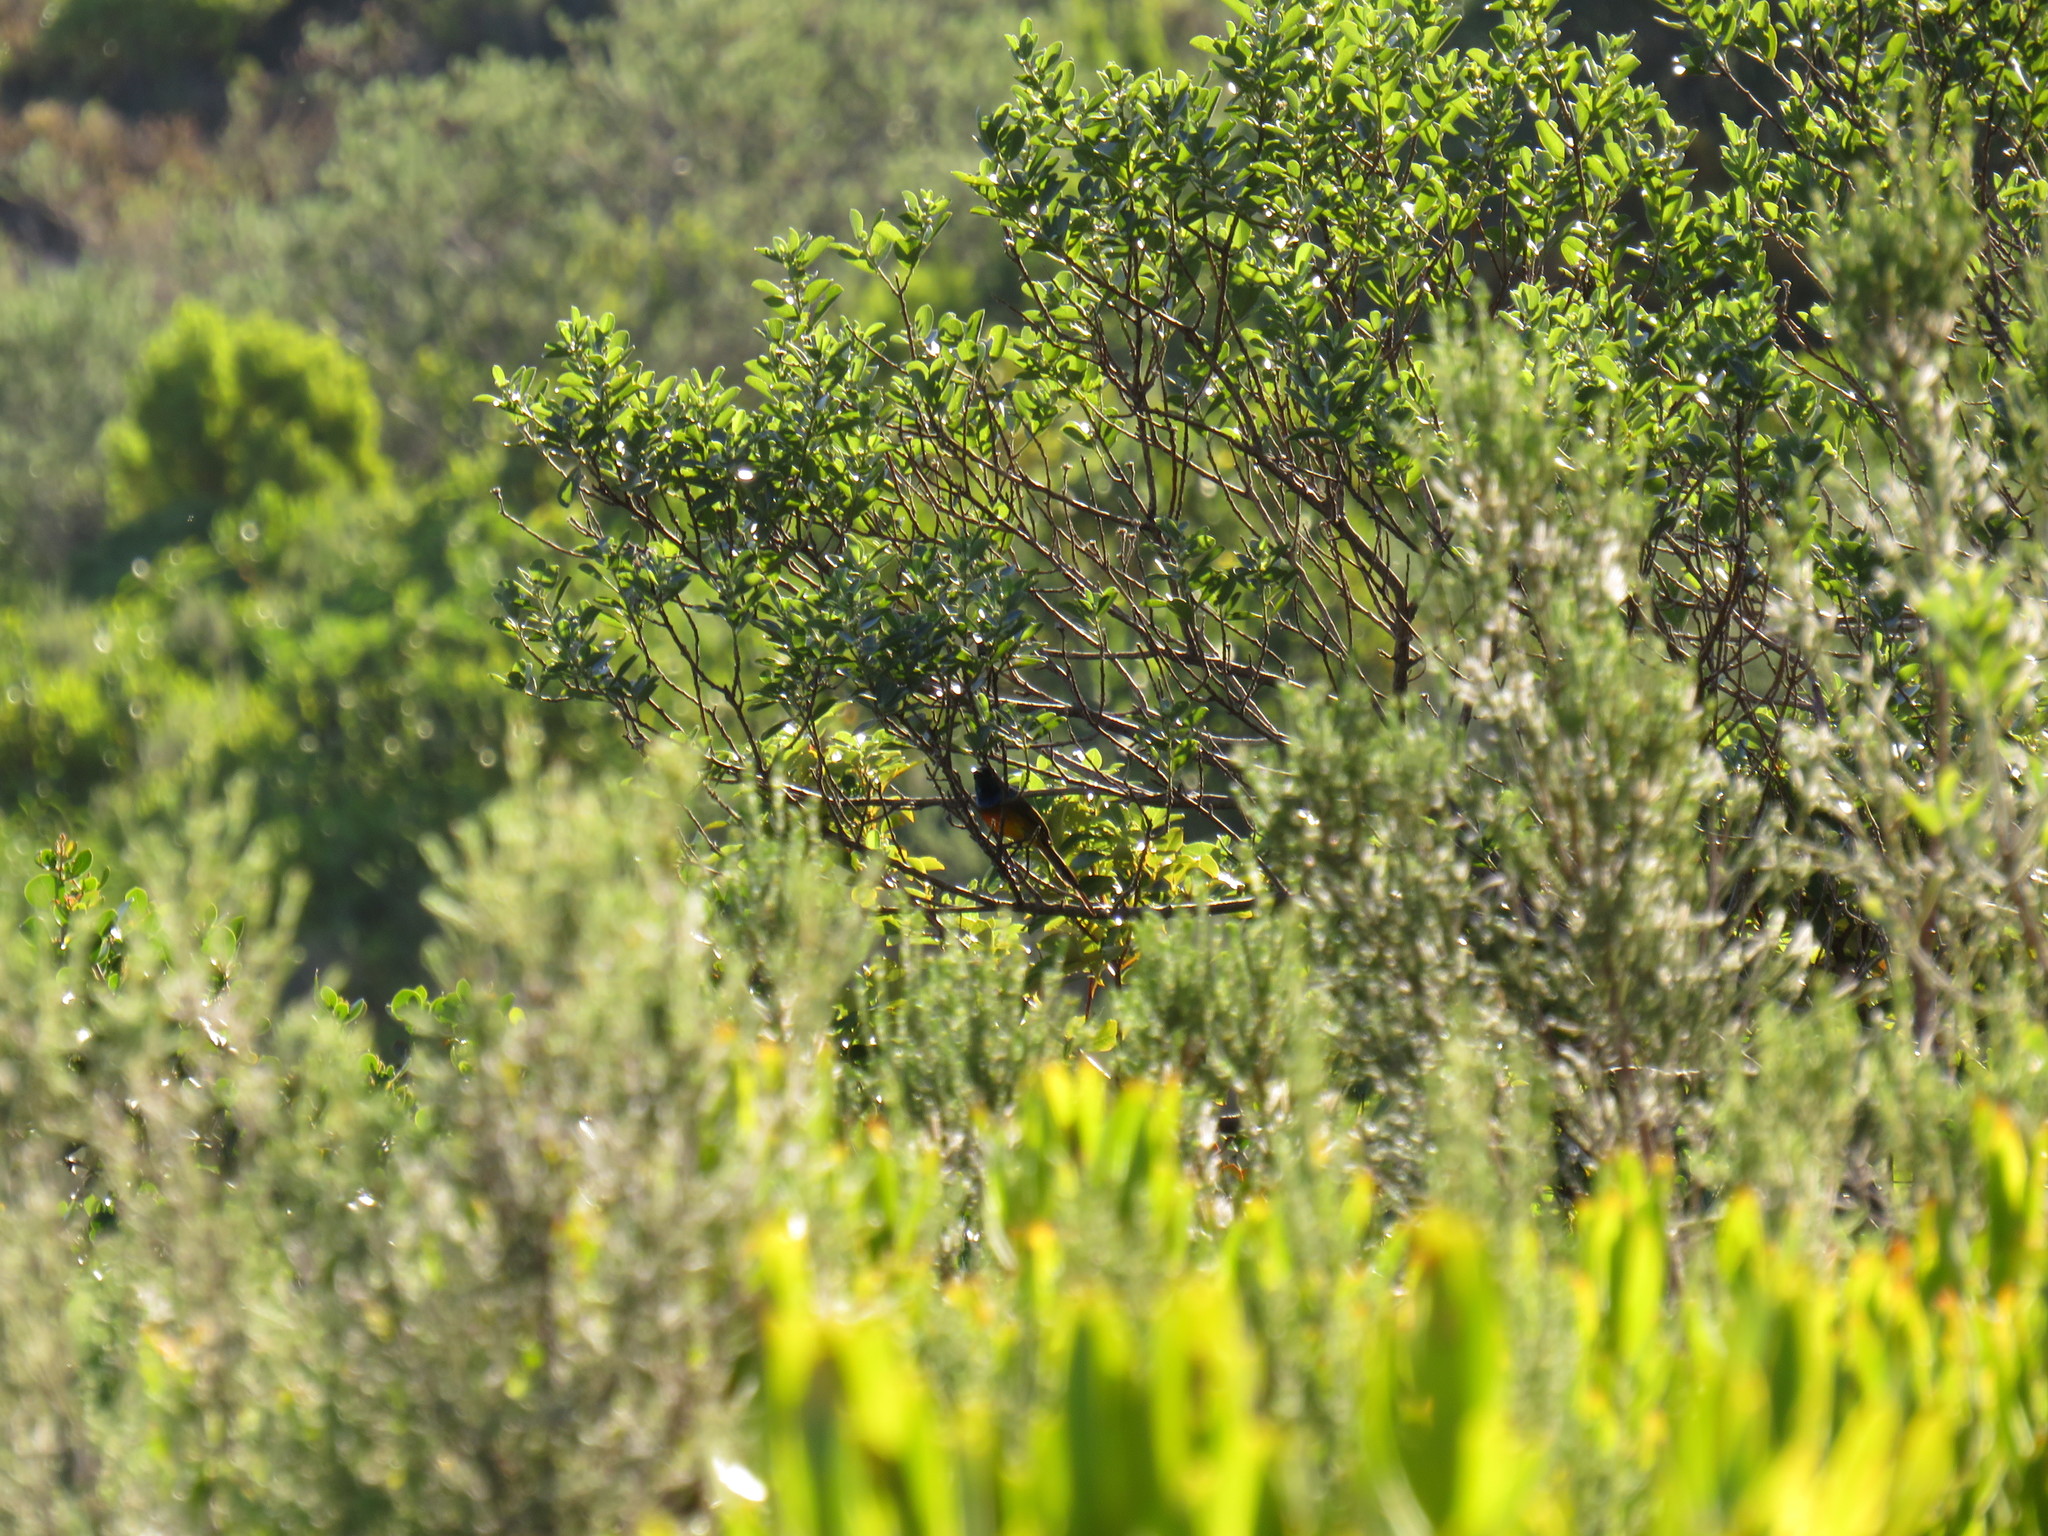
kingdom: Animalia
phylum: Chordata
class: Aves
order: Passeriformes
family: Nectariniidae
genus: Anthobaphes
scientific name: Anthobaphes violacea
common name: Orange-breasted sunbird
